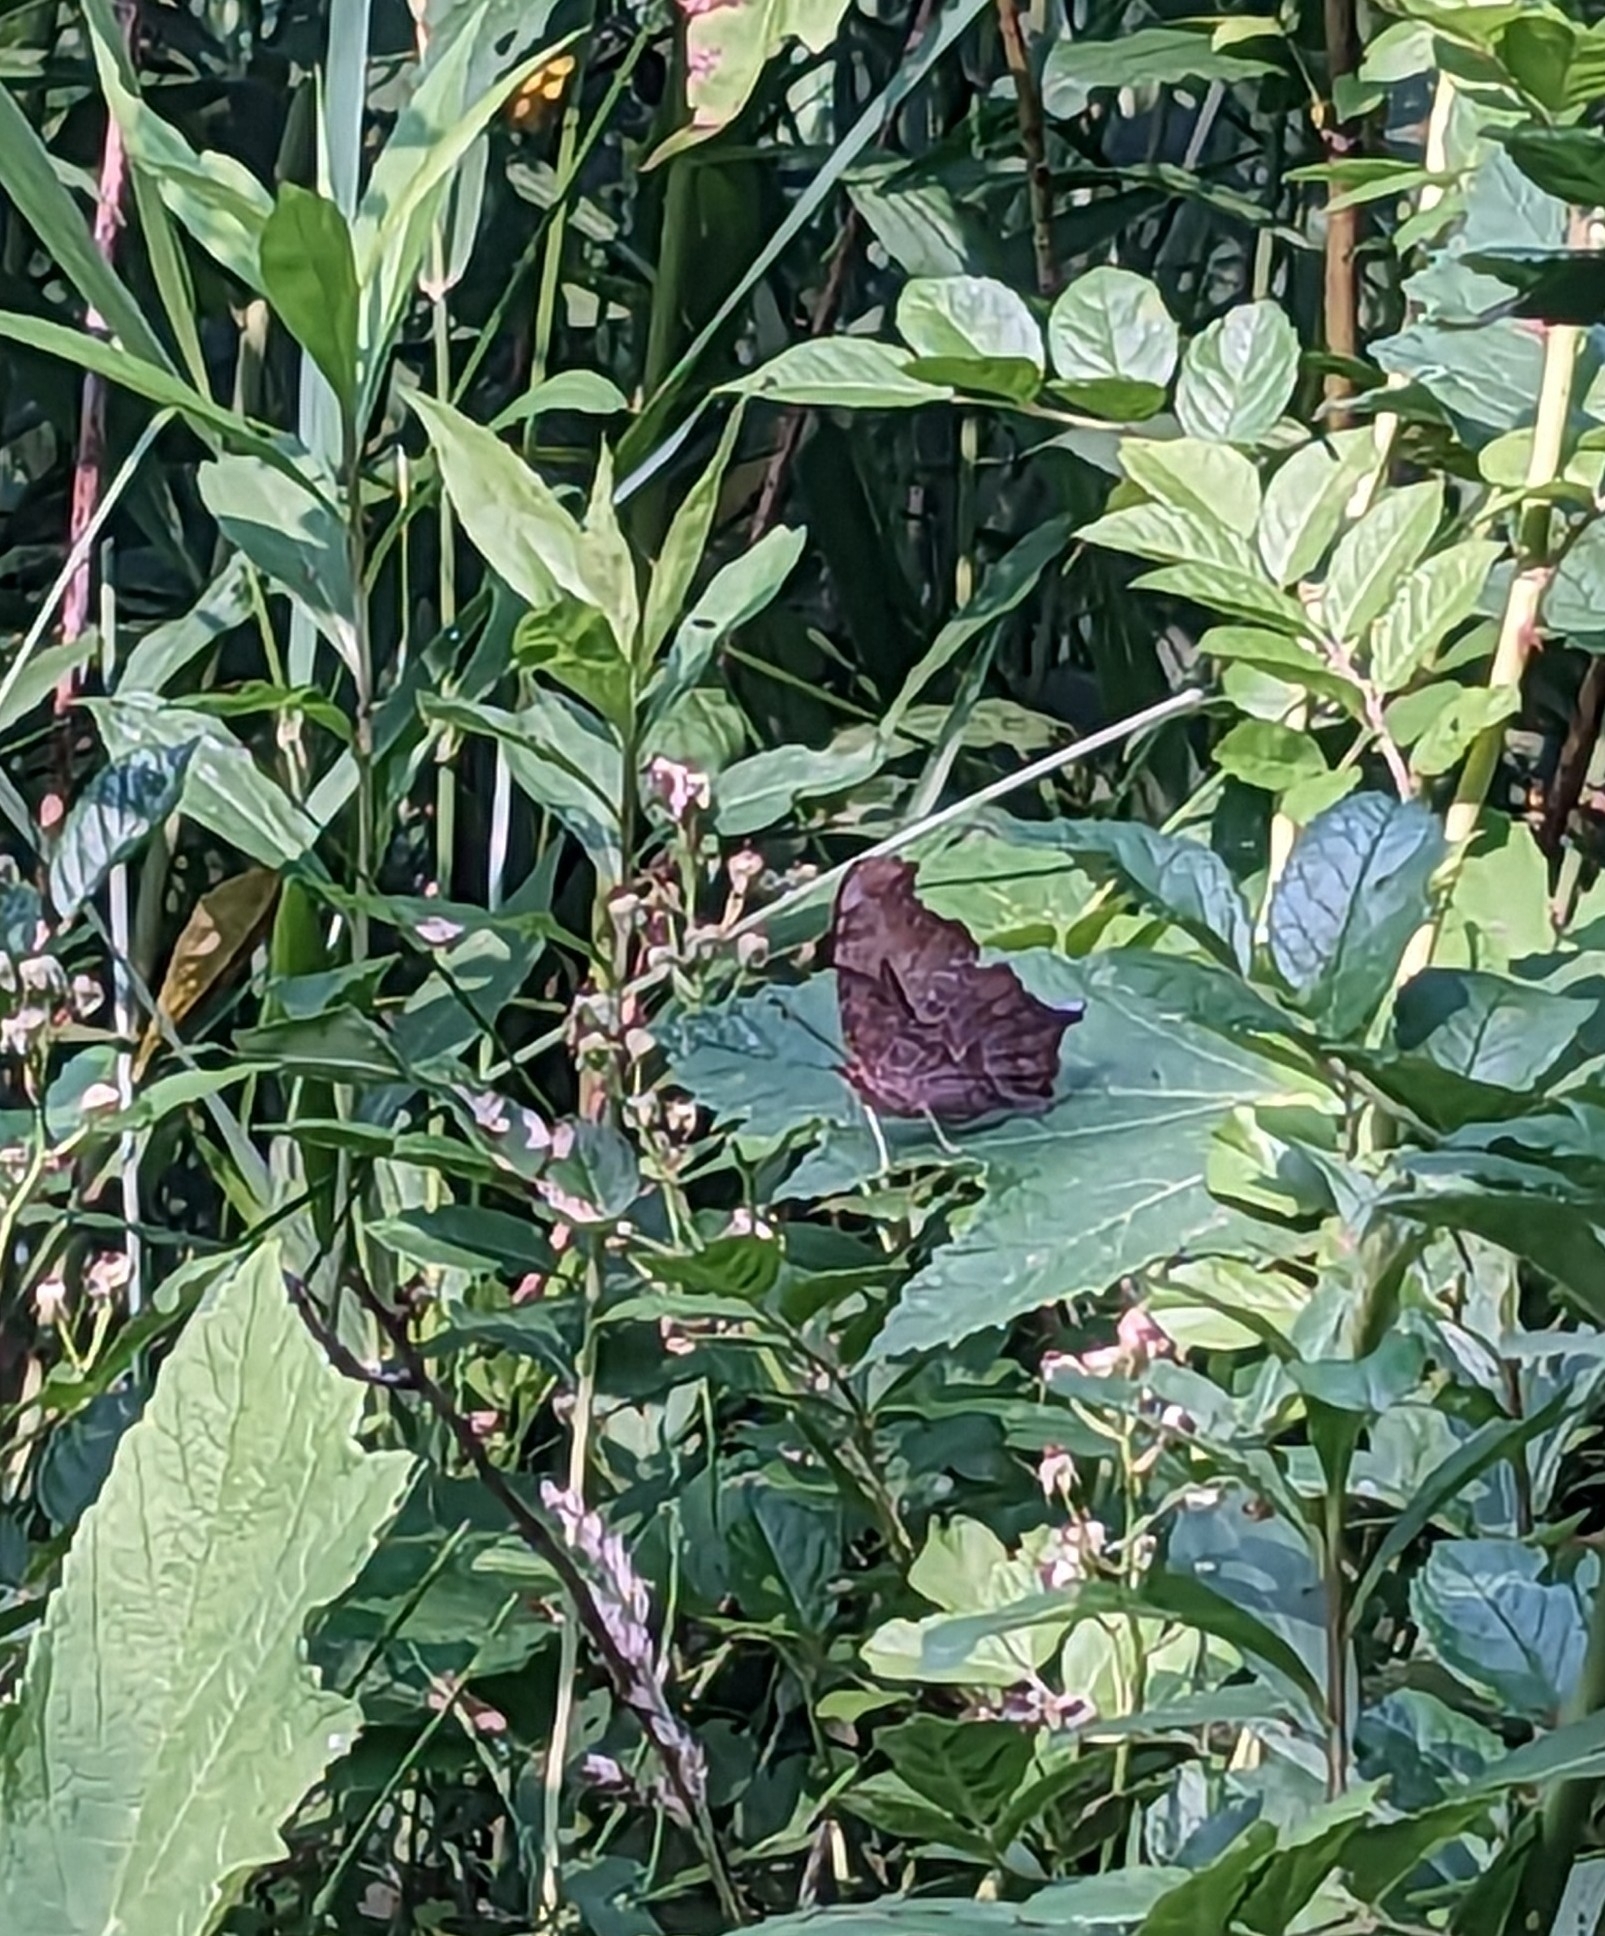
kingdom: Animalia
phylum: Arthropoda
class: Insecta
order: Lepidoptera
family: Nymphalidae
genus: Polygonia
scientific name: Polygonia interrogationis
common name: Question mark
